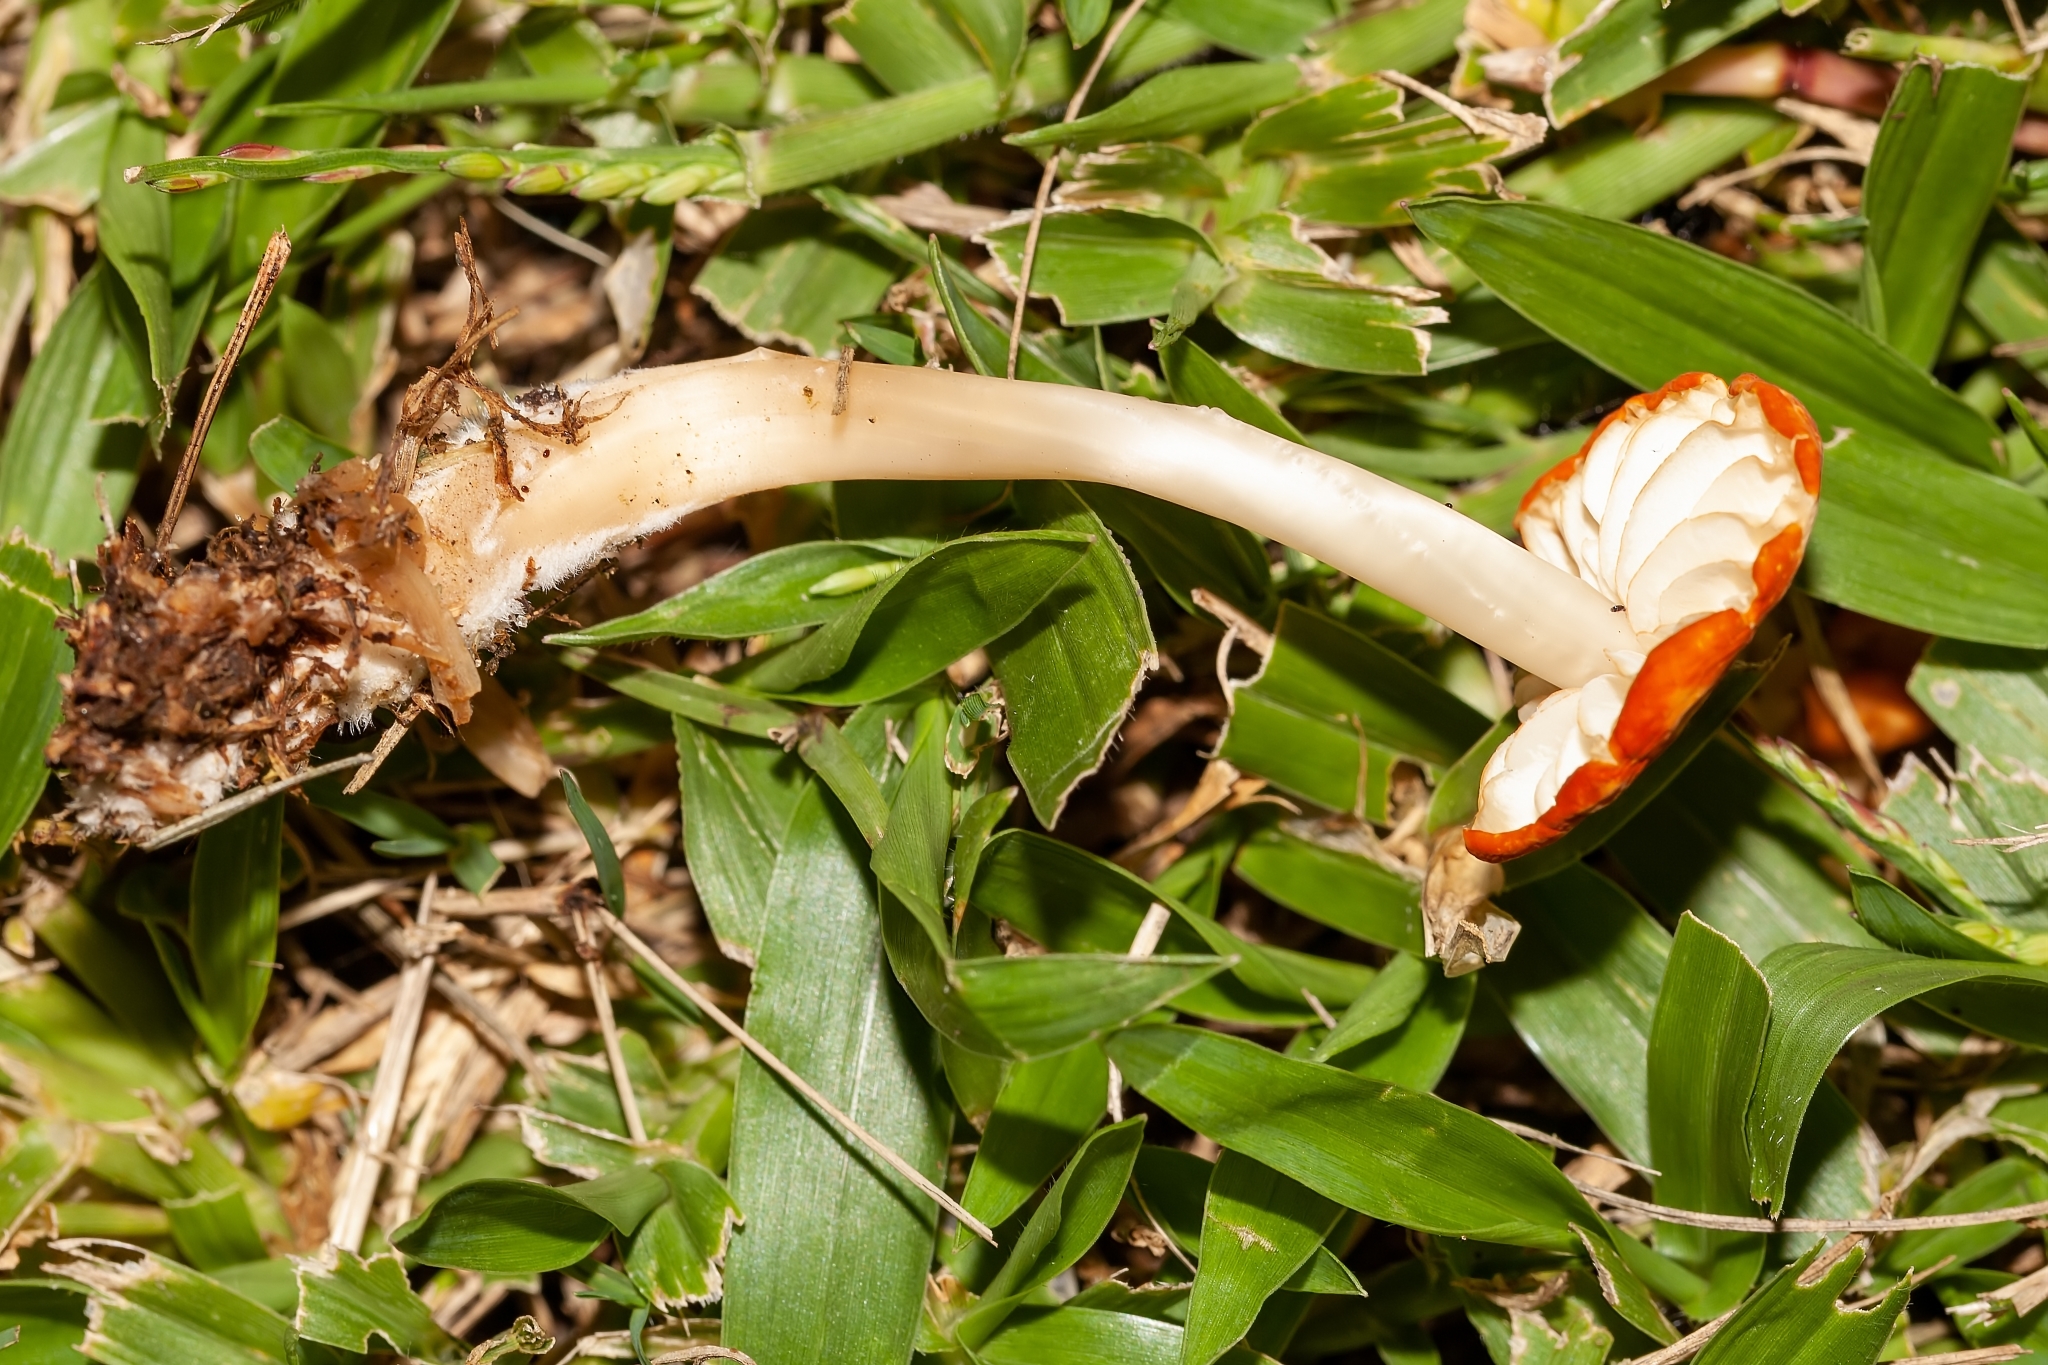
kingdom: Fungi
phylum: Basidiomycota
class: Agaricomycetes
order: Agaricales
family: Marasmiaceae
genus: Marasmius
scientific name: Marasmius vagus
